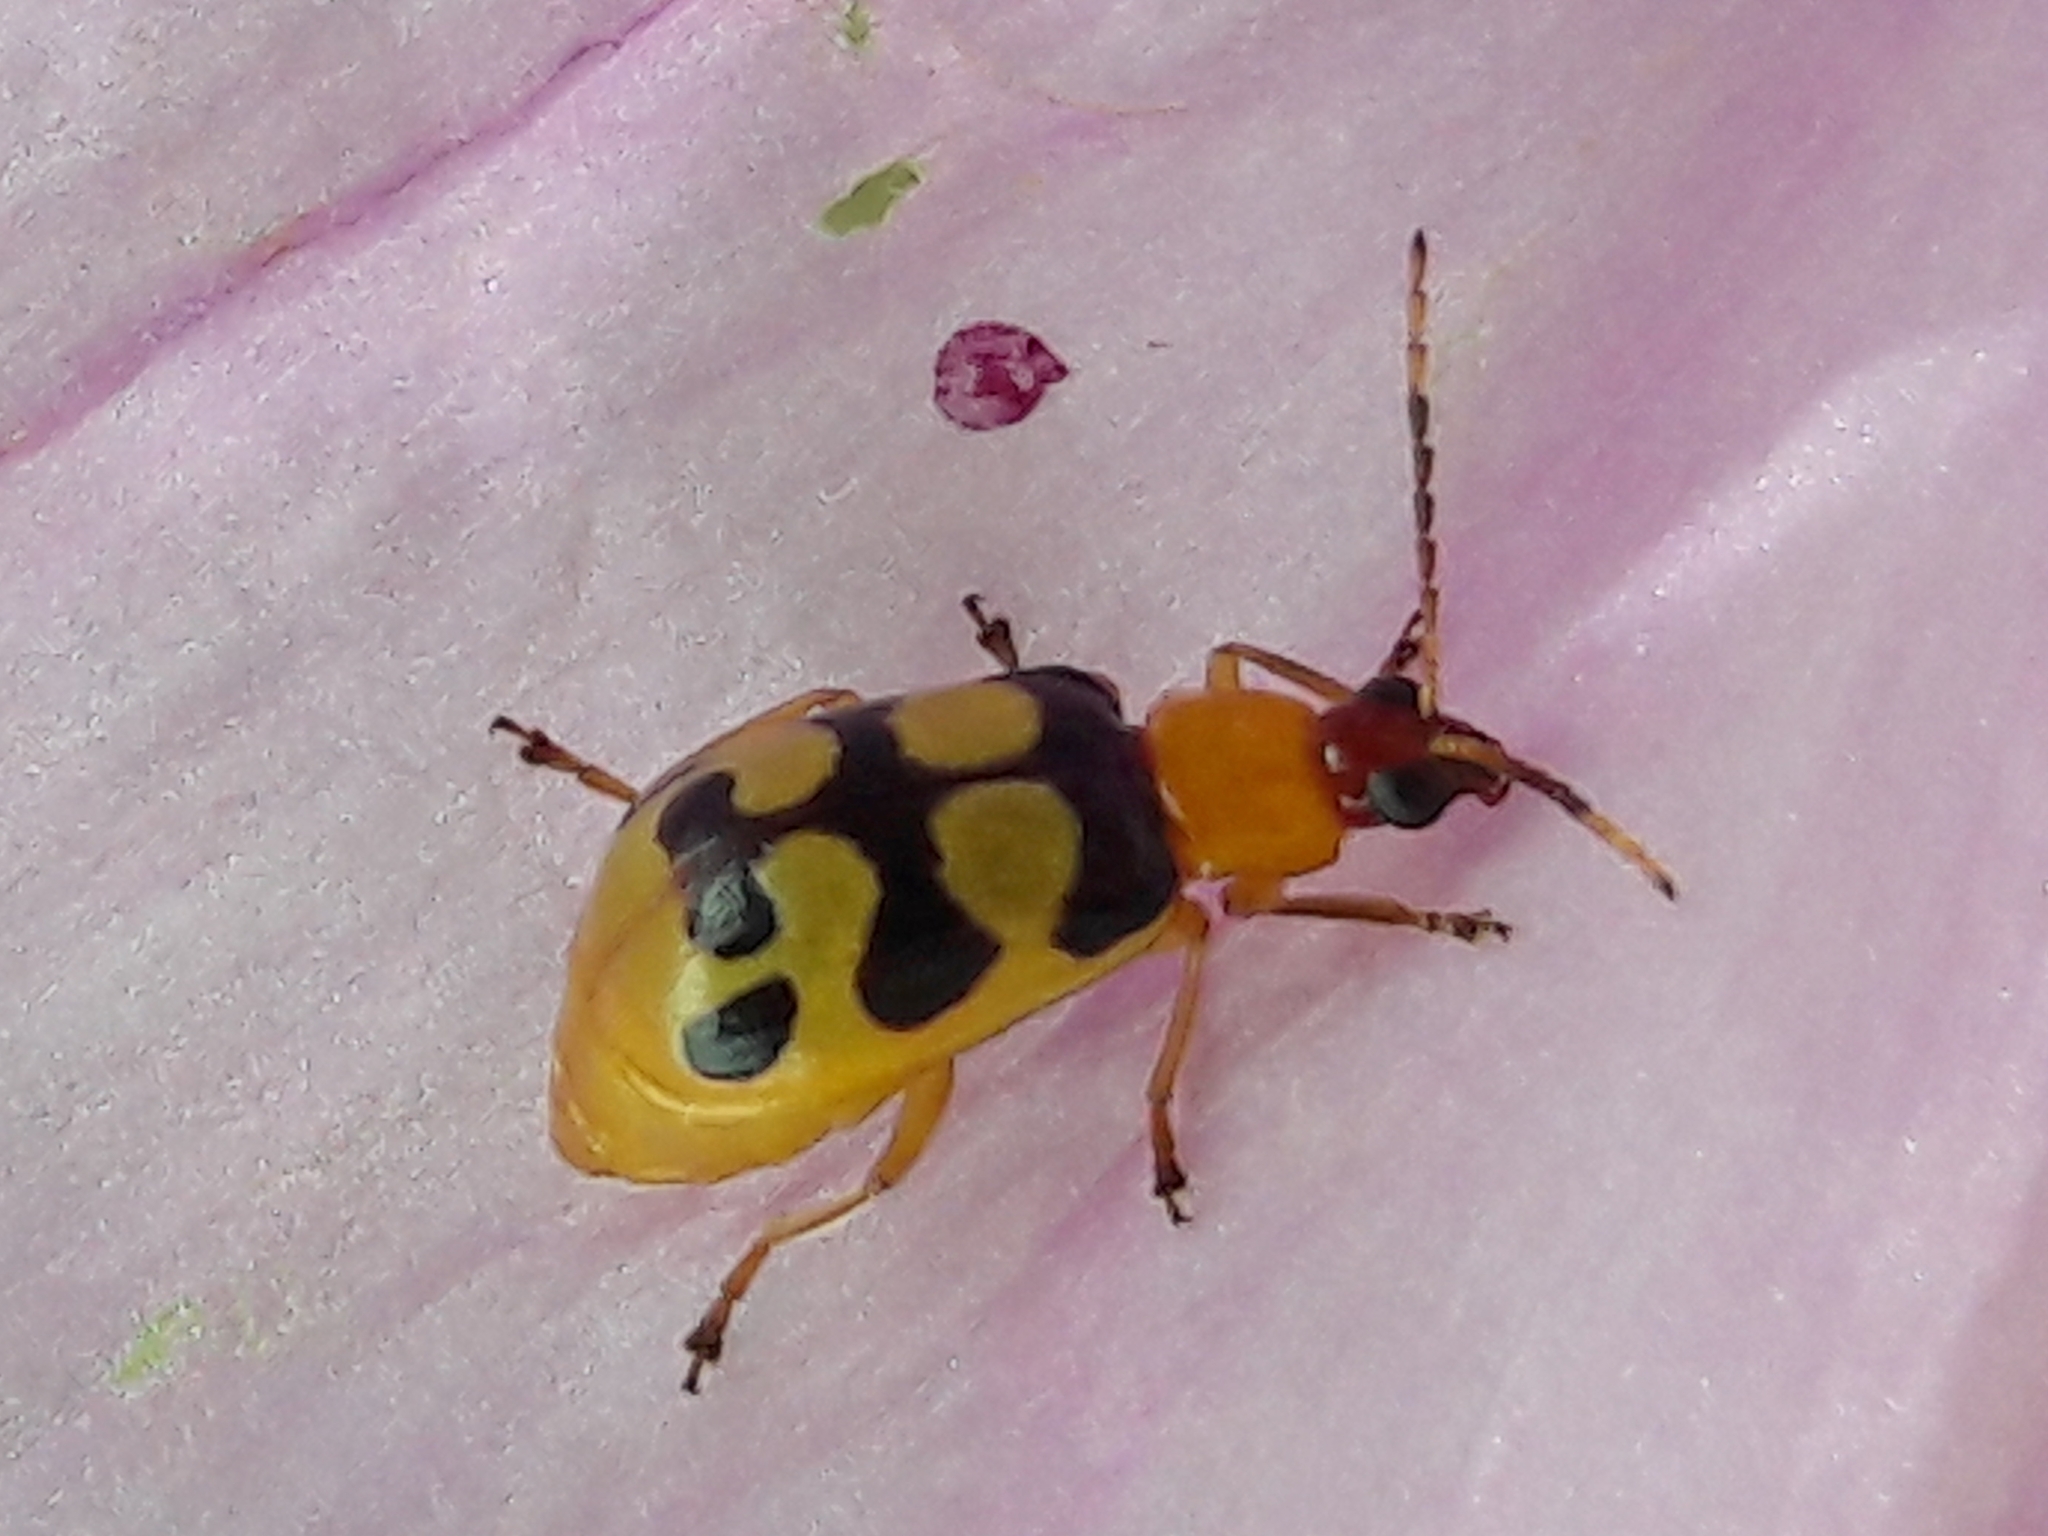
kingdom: Animalia
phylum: Arthropoda
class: Insecta
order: Coleoptera
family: Chrysomelidae
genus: Basiprionota
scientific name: Basiprionota sinuata
